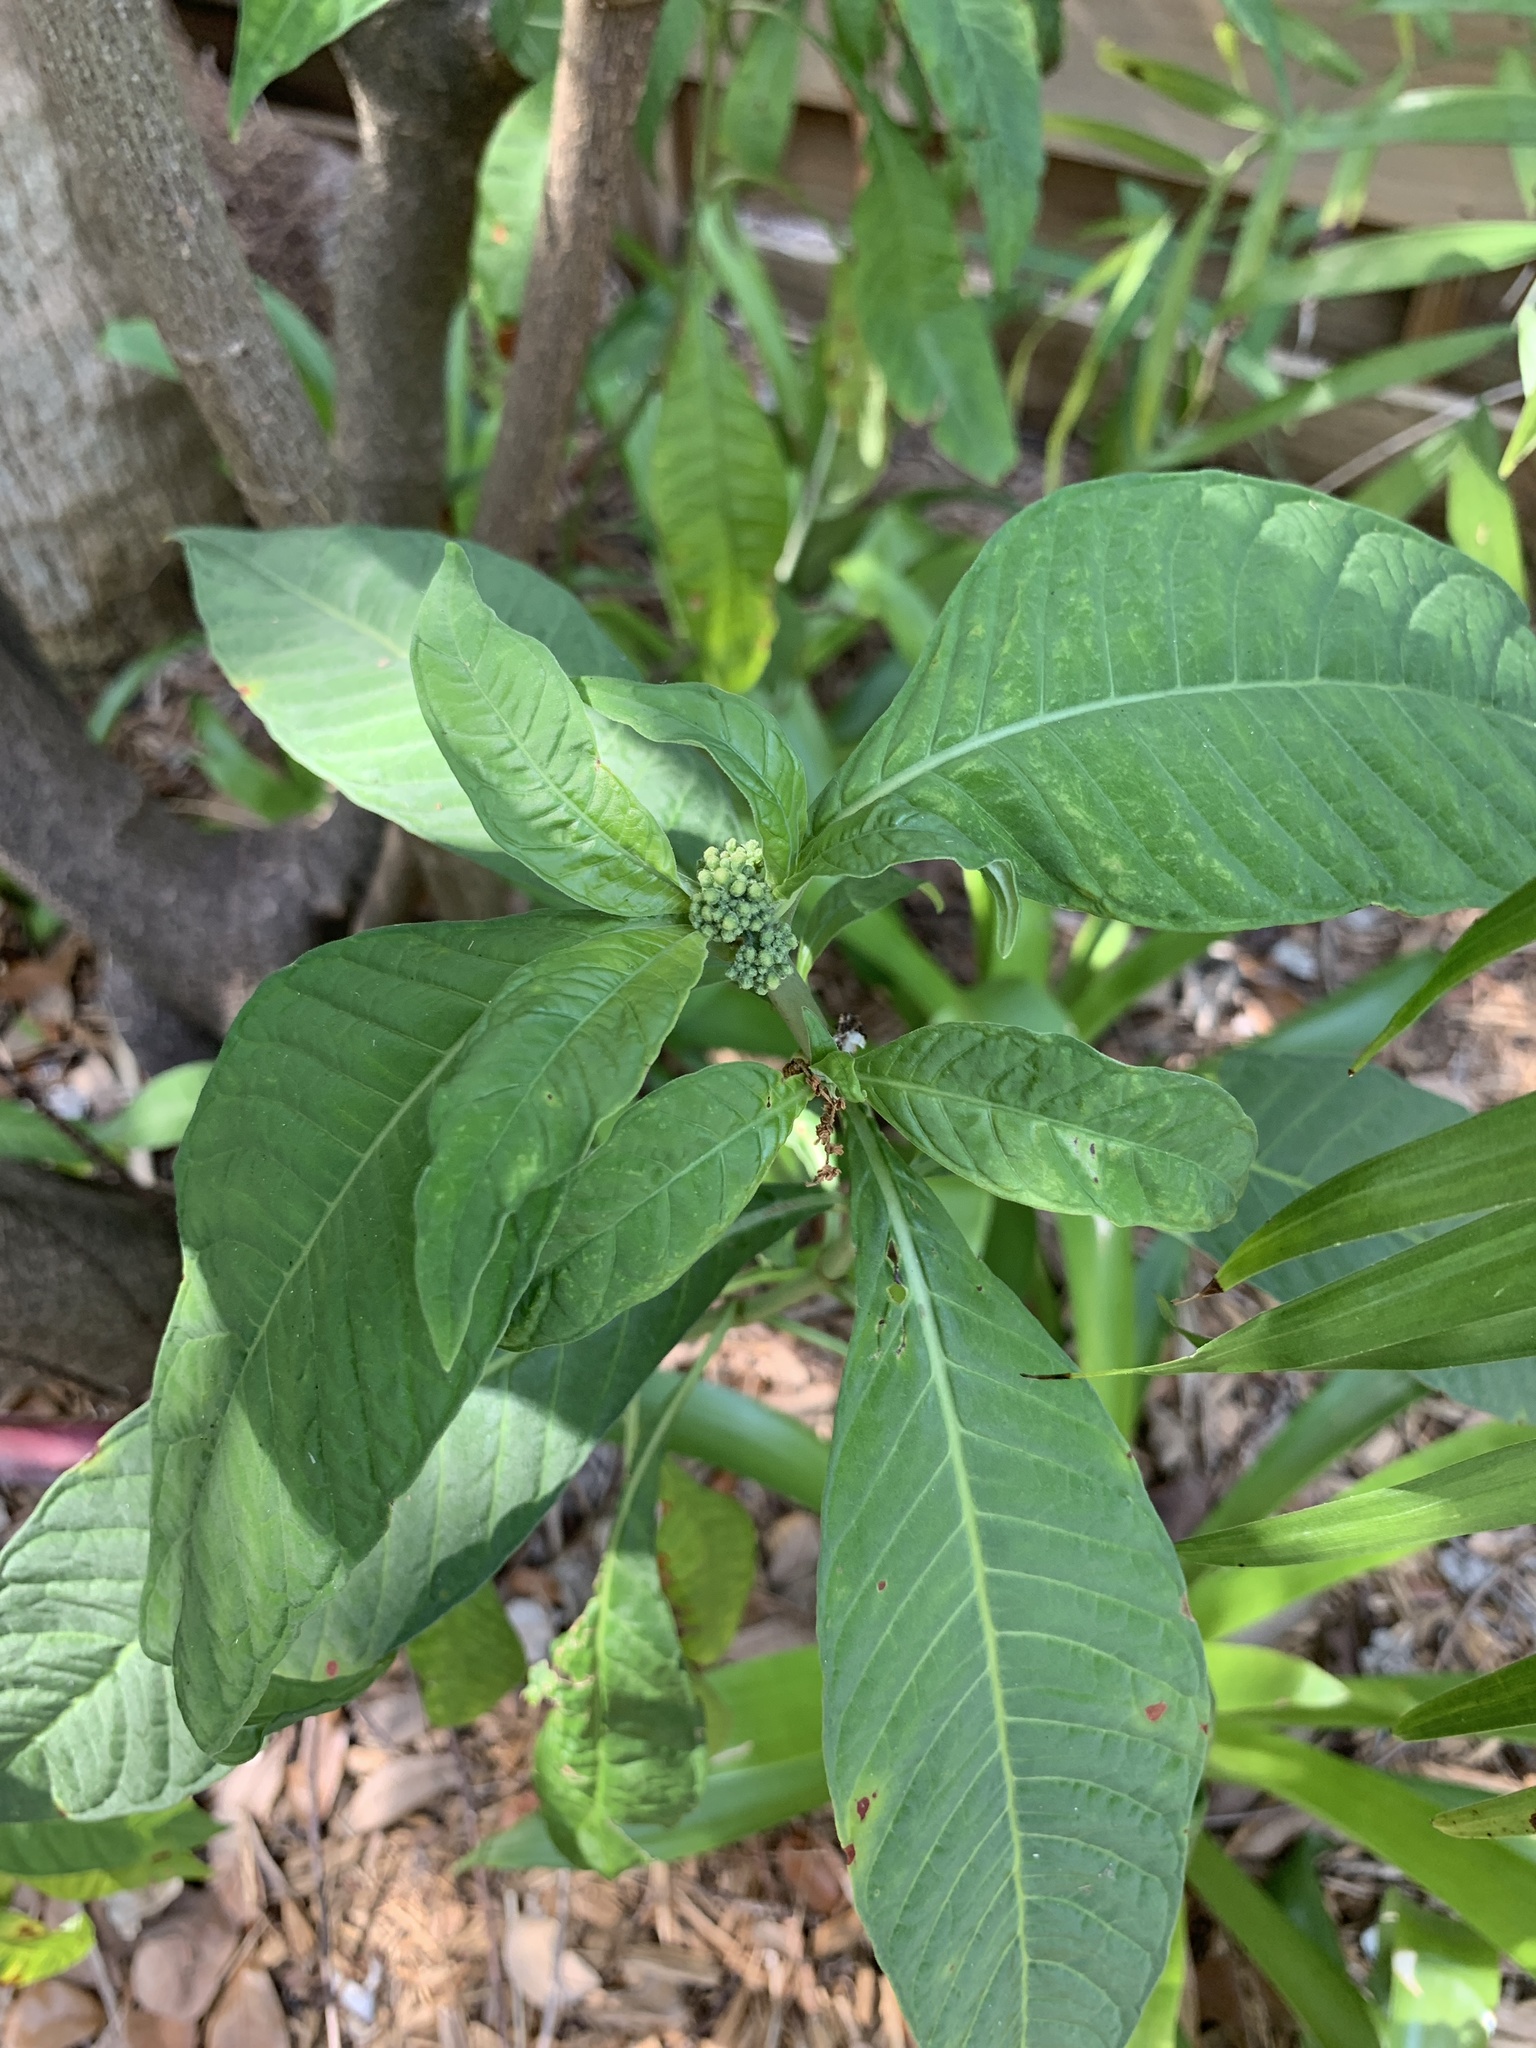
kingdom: Plantae
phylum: Tracheophyta
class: Magnoliopsida
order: Gentianales
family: Rubiaceae
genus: Psychotria
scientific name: Psychotria tenuifolia
